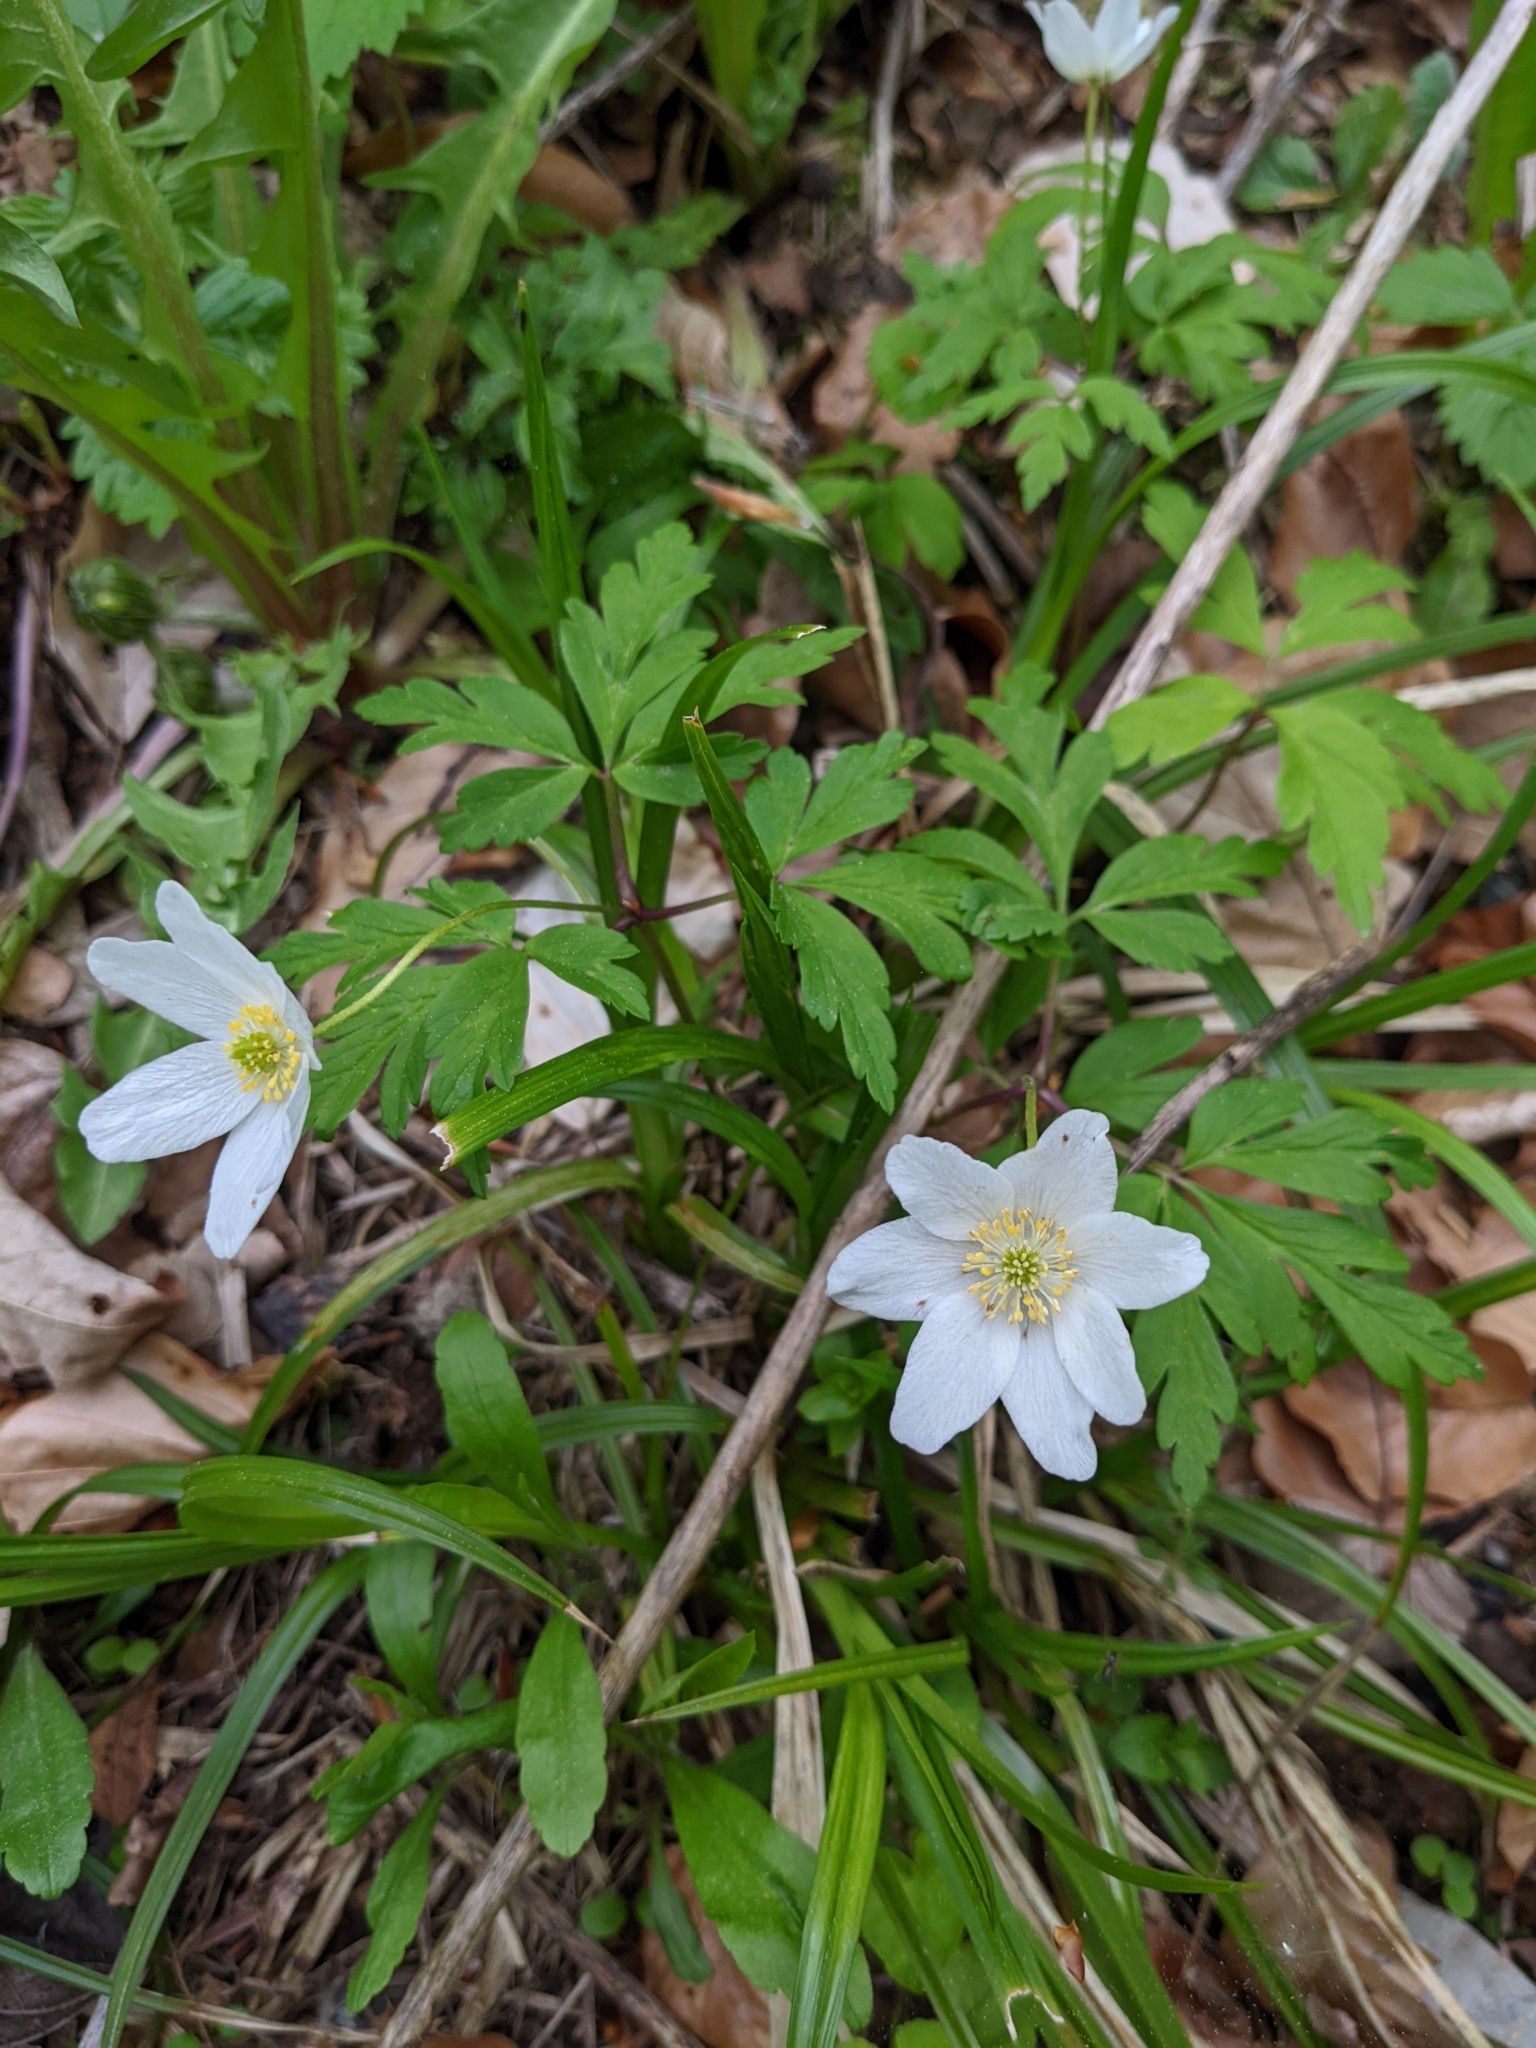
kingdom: Plantae
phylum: Tracheophyta
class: Magnoliopsida
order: Ranunculales
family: Ranunculaceae
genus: Anemone
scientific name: Anemone nemorosa
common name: Wood anemone
